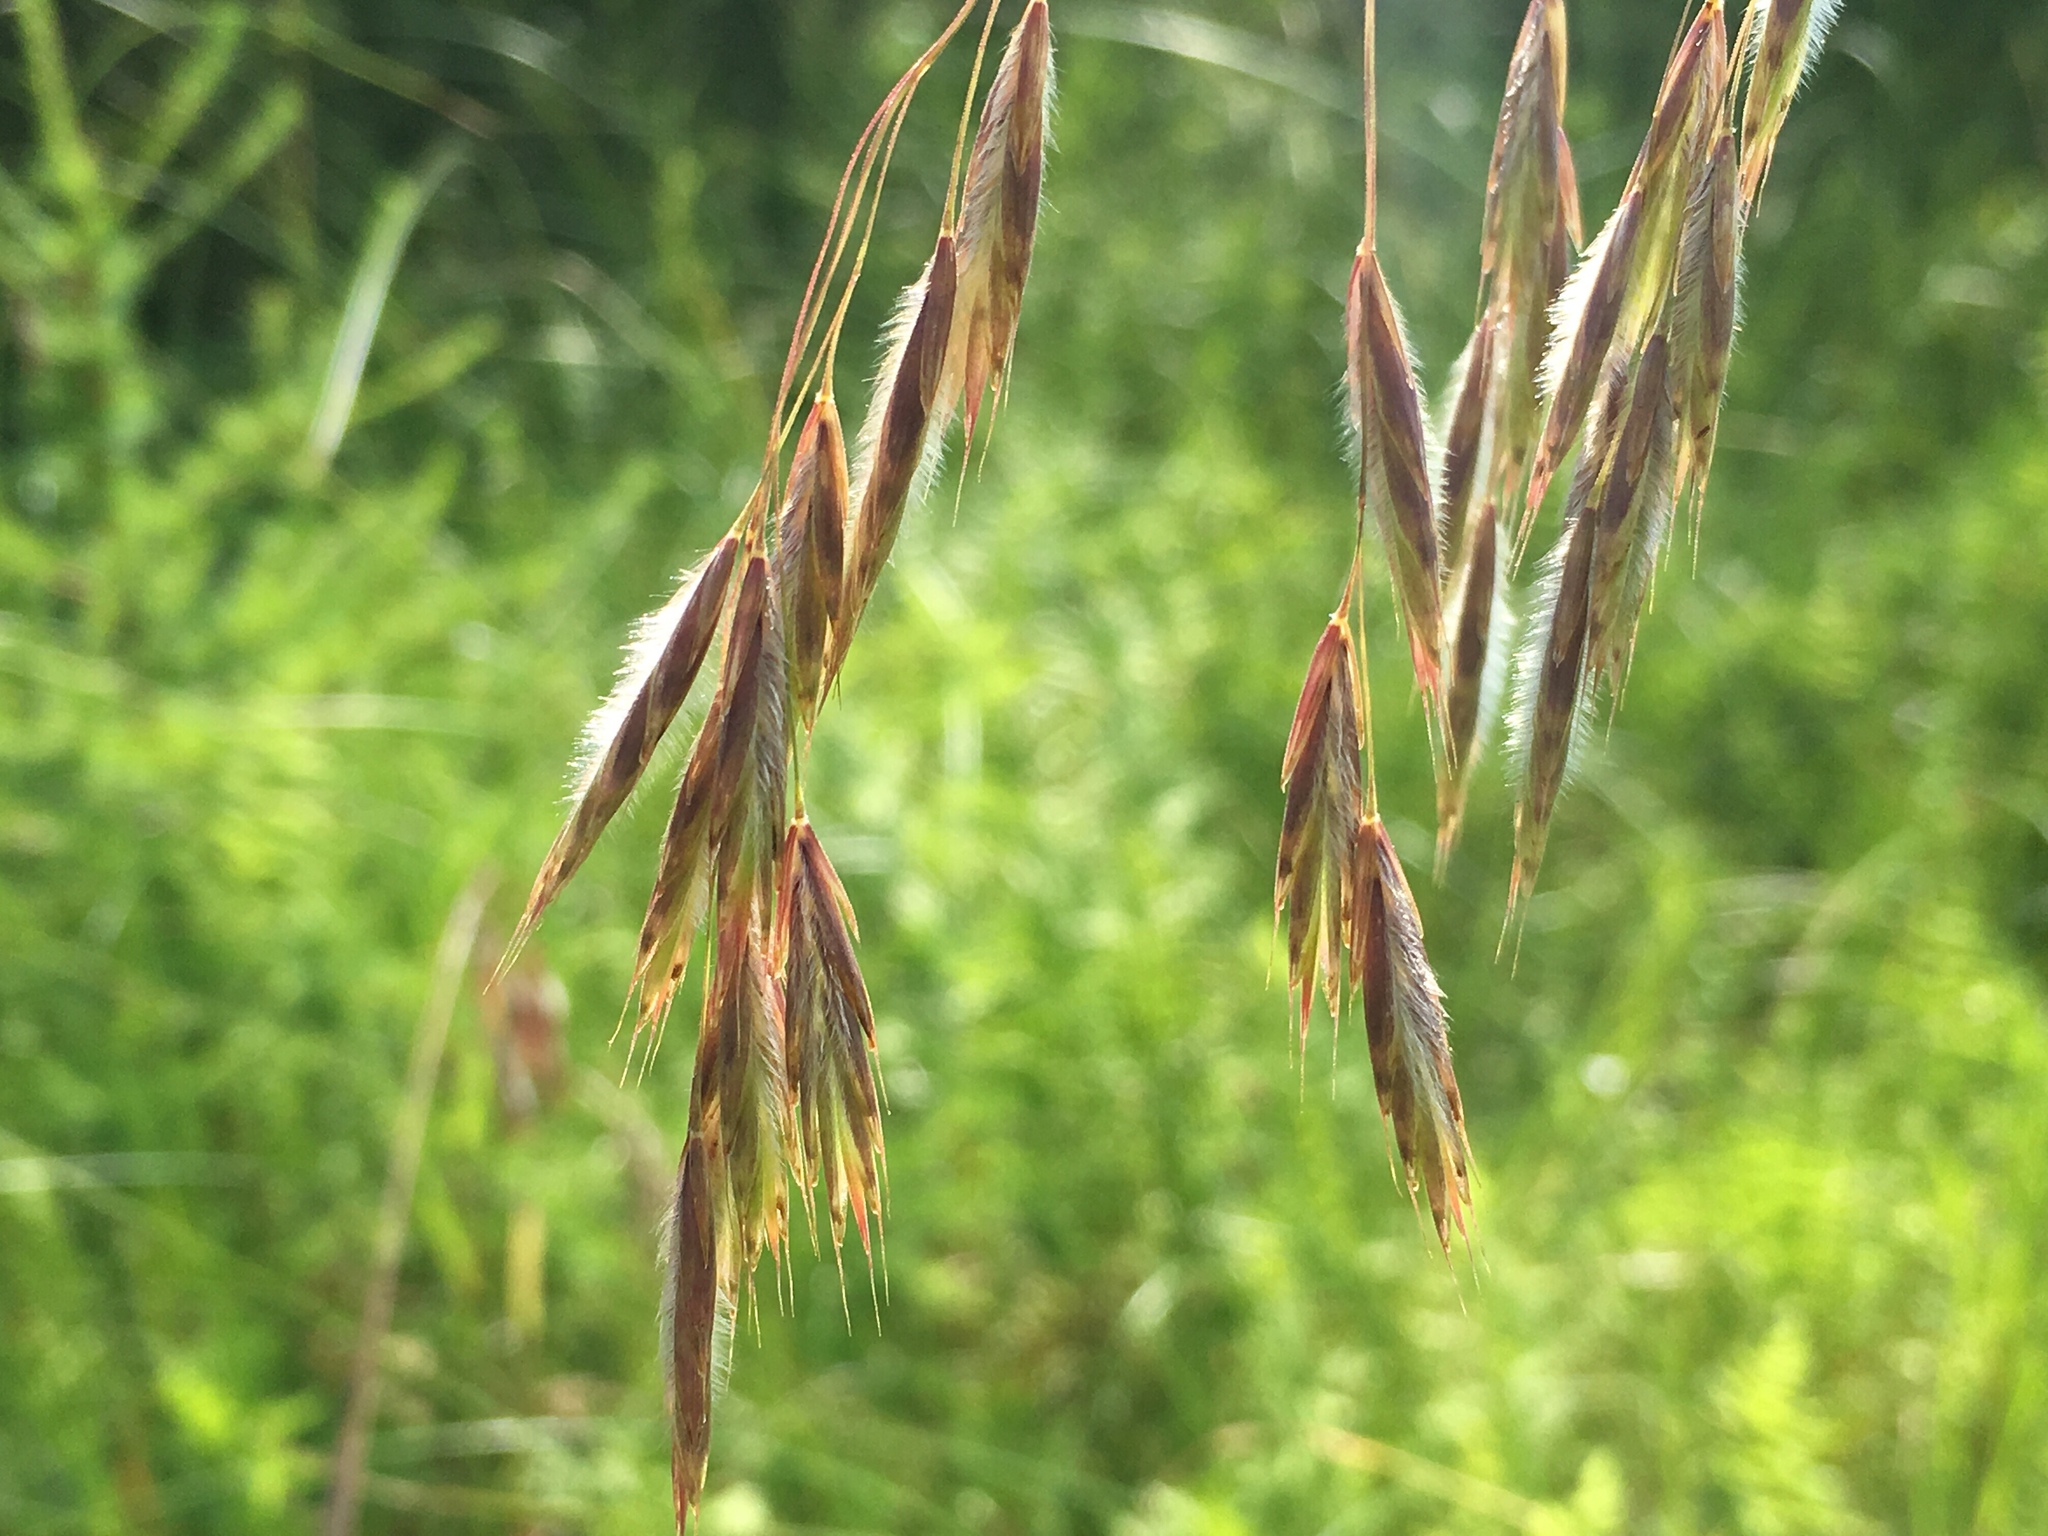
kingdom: Plantae
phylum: Tracheophyta
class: Liliopsida
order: Poales
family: Poaceae
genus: Bromus
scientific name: Bromus ciliatus
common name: Fringe brome
